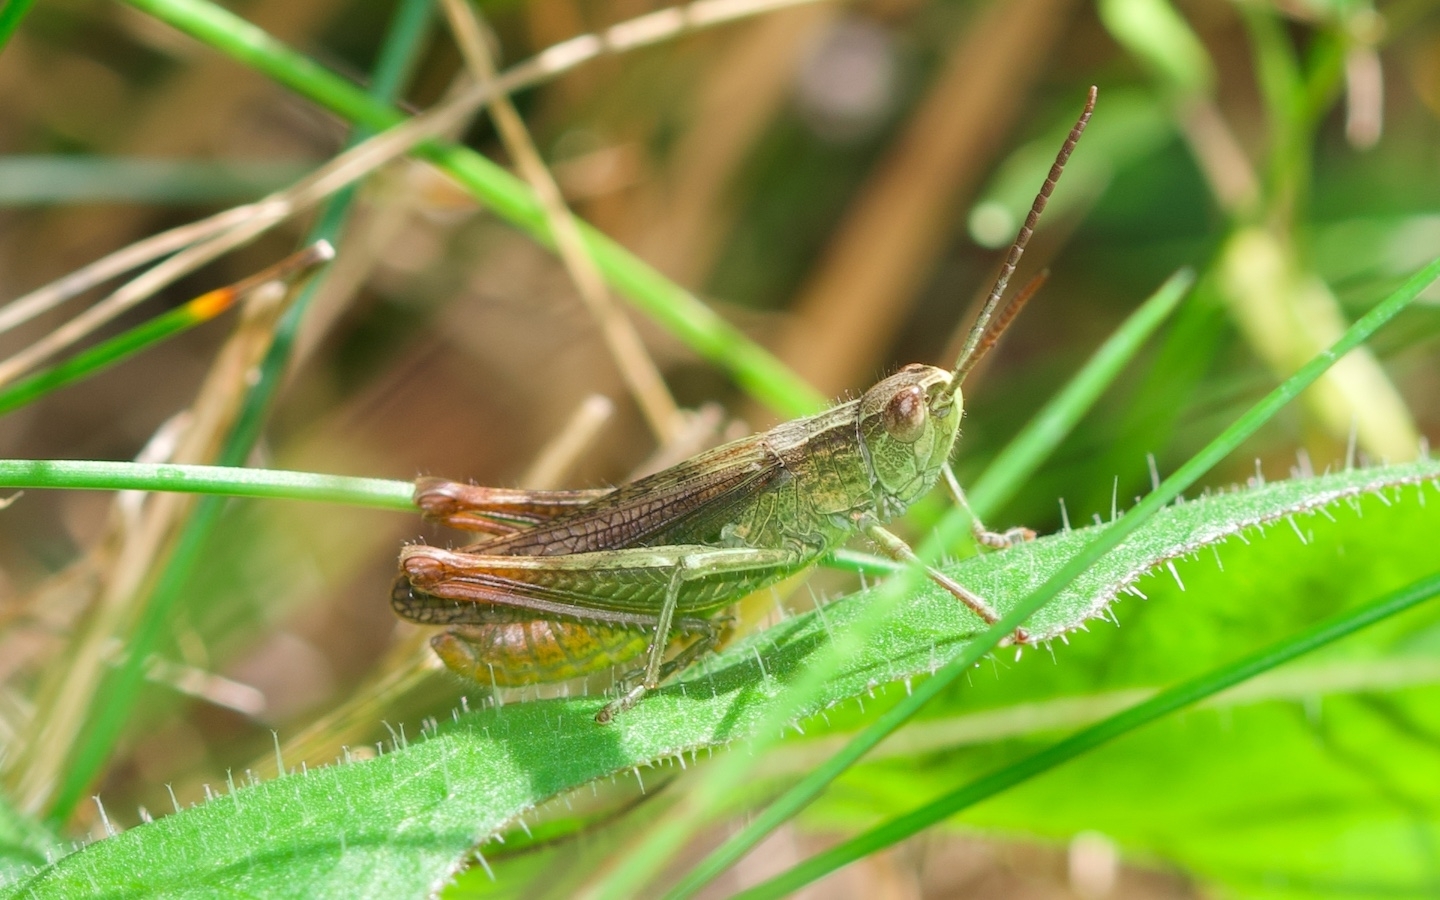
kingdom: Animalia
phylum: Arthropoda
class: Insecta
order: Orthoptera
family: Acrididae
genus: Chorthippus
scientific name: Chorthippus dorsatus
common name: Steppe grasshopper
